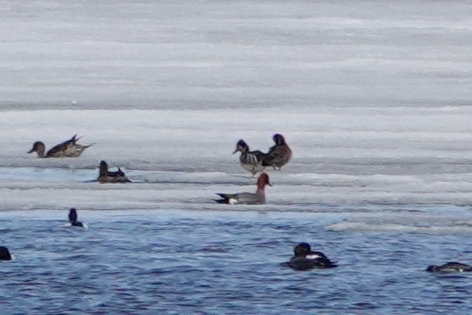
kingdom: Animalia
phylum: Chordata
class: Aves
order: Anseriformes
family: Anatidae
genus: Sibirionetta
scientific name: Sibirionetta formosa
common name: Baikal teal
